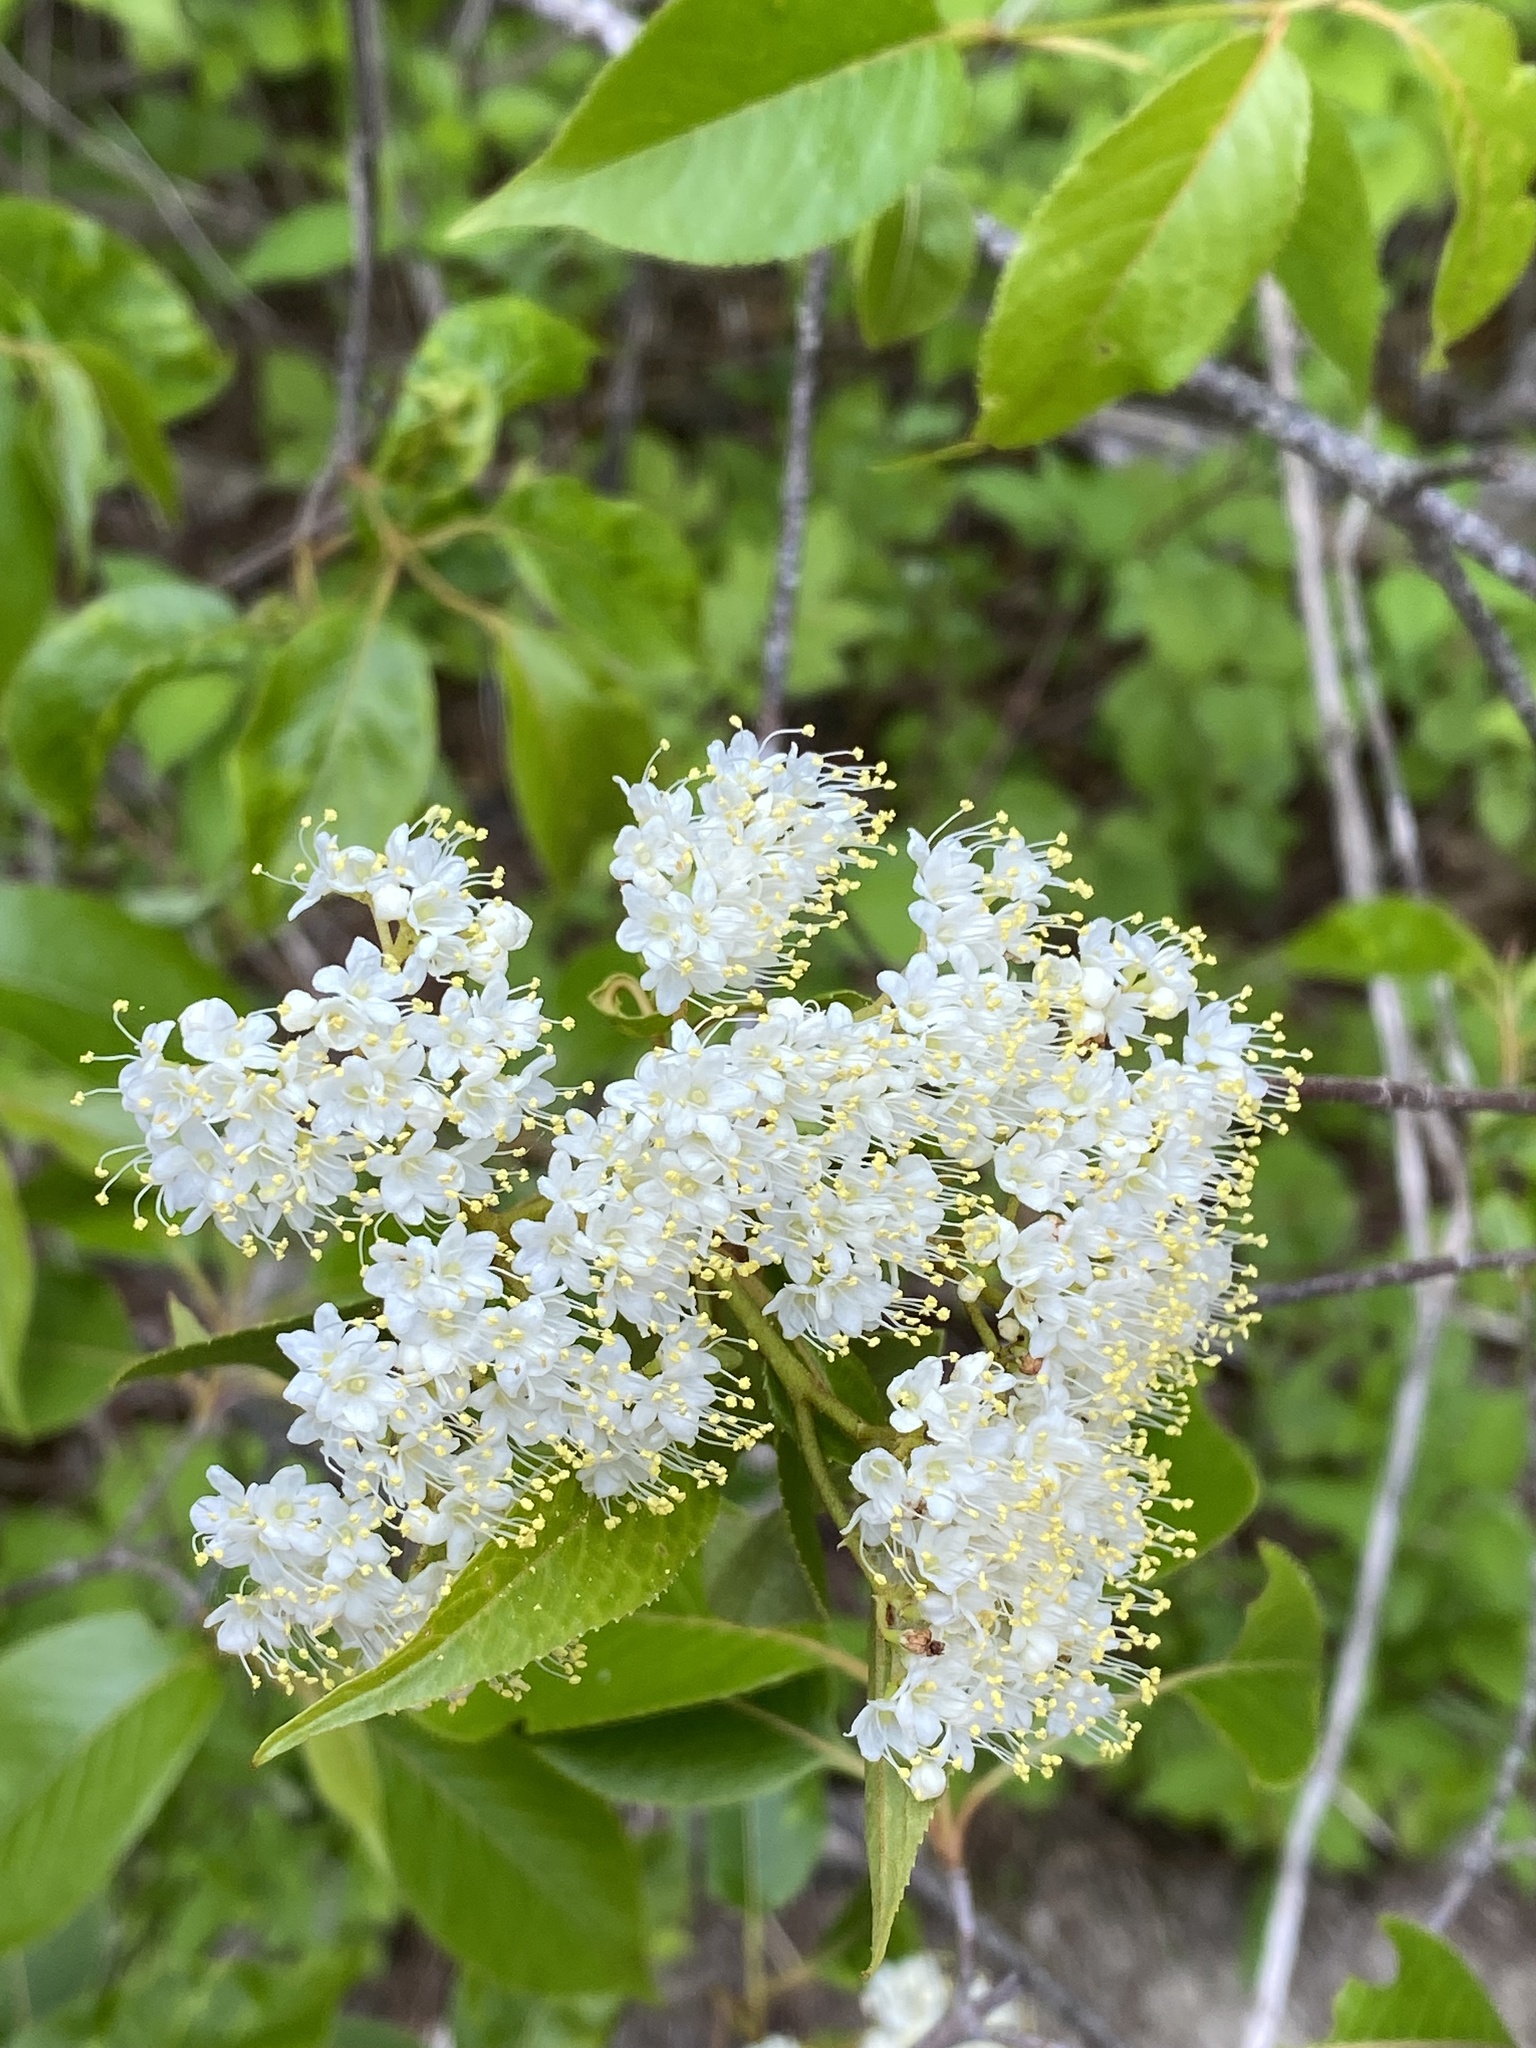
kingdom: Plantae
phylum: Tracheophyta
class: Magnoliopsida
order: Dipsacales
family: Viburnaceae
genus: Viburnum
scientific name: Viburnum lentago
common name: Black haw
